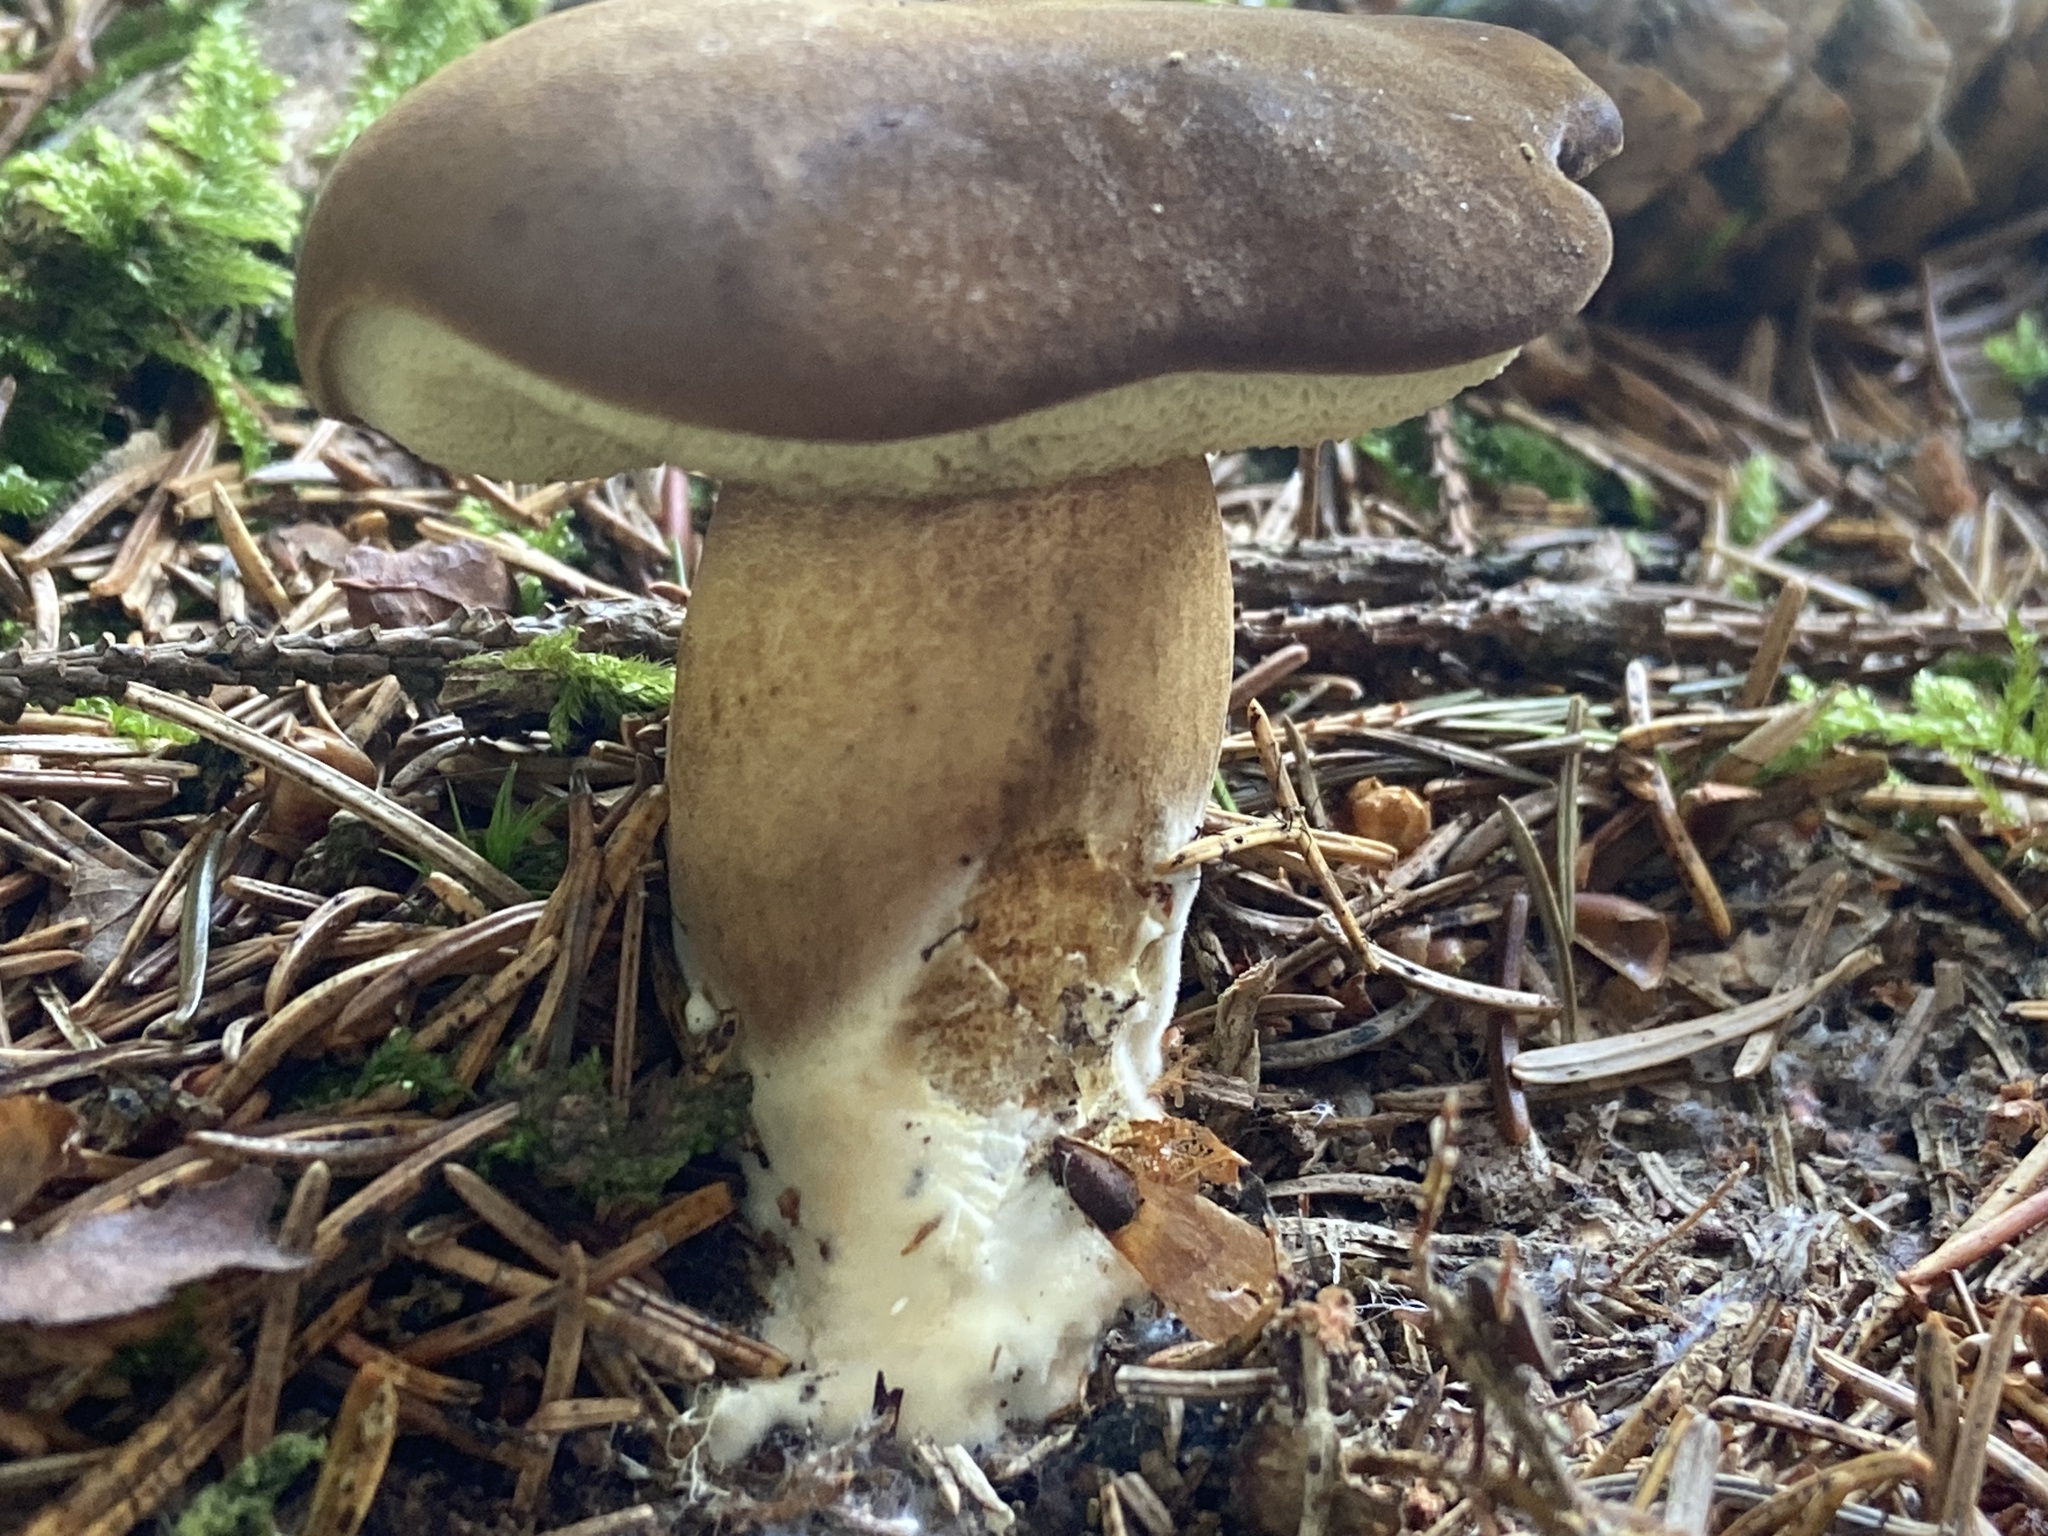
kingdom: Fungi
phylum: Basidiomycota
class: Agaricomycetes
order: Boletales
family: Boletaceae
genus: Imleria
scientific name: Imleria badia
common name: Bay bolete
